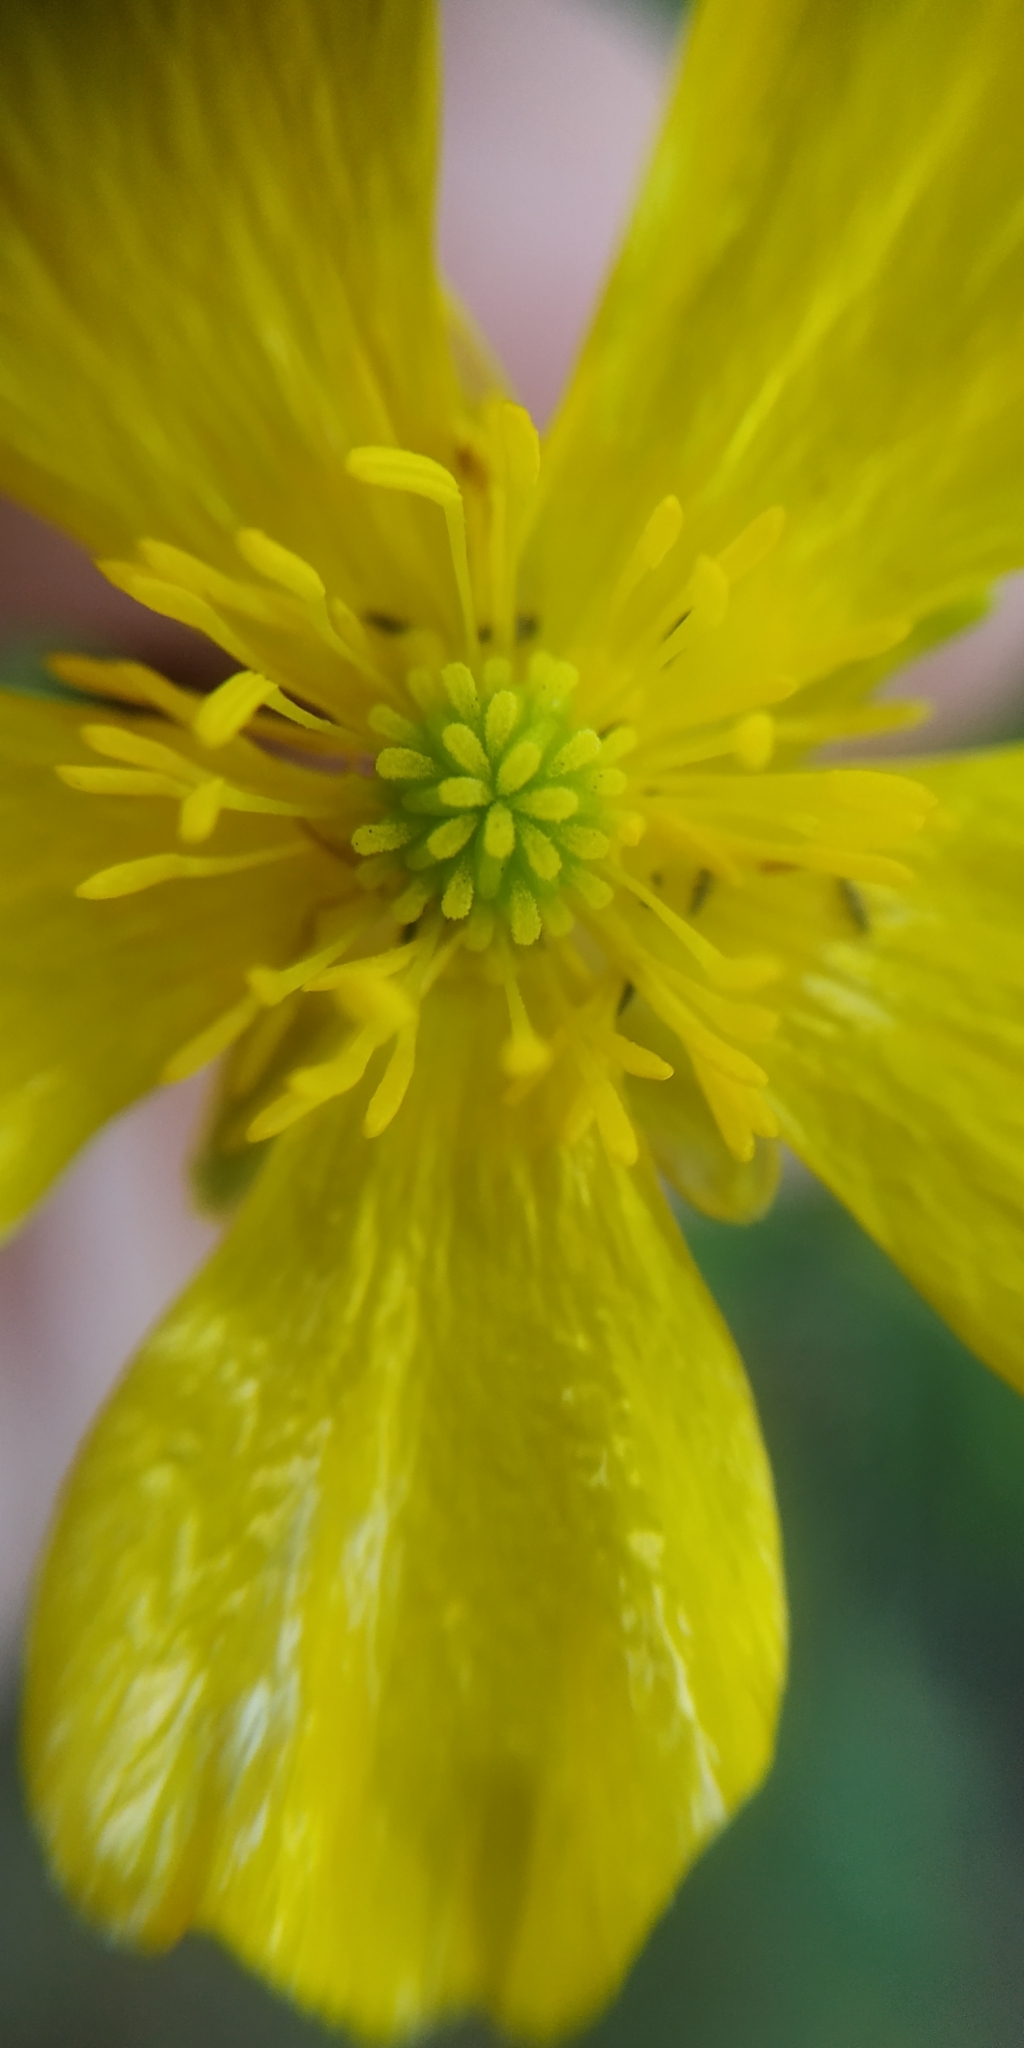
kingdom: Plantae
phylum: Tracheophyta
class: Magnoliopsida
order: Ranunculales
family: Ranunculaceae
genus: Ranunculus
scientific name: Ranunculus polyanthemos
